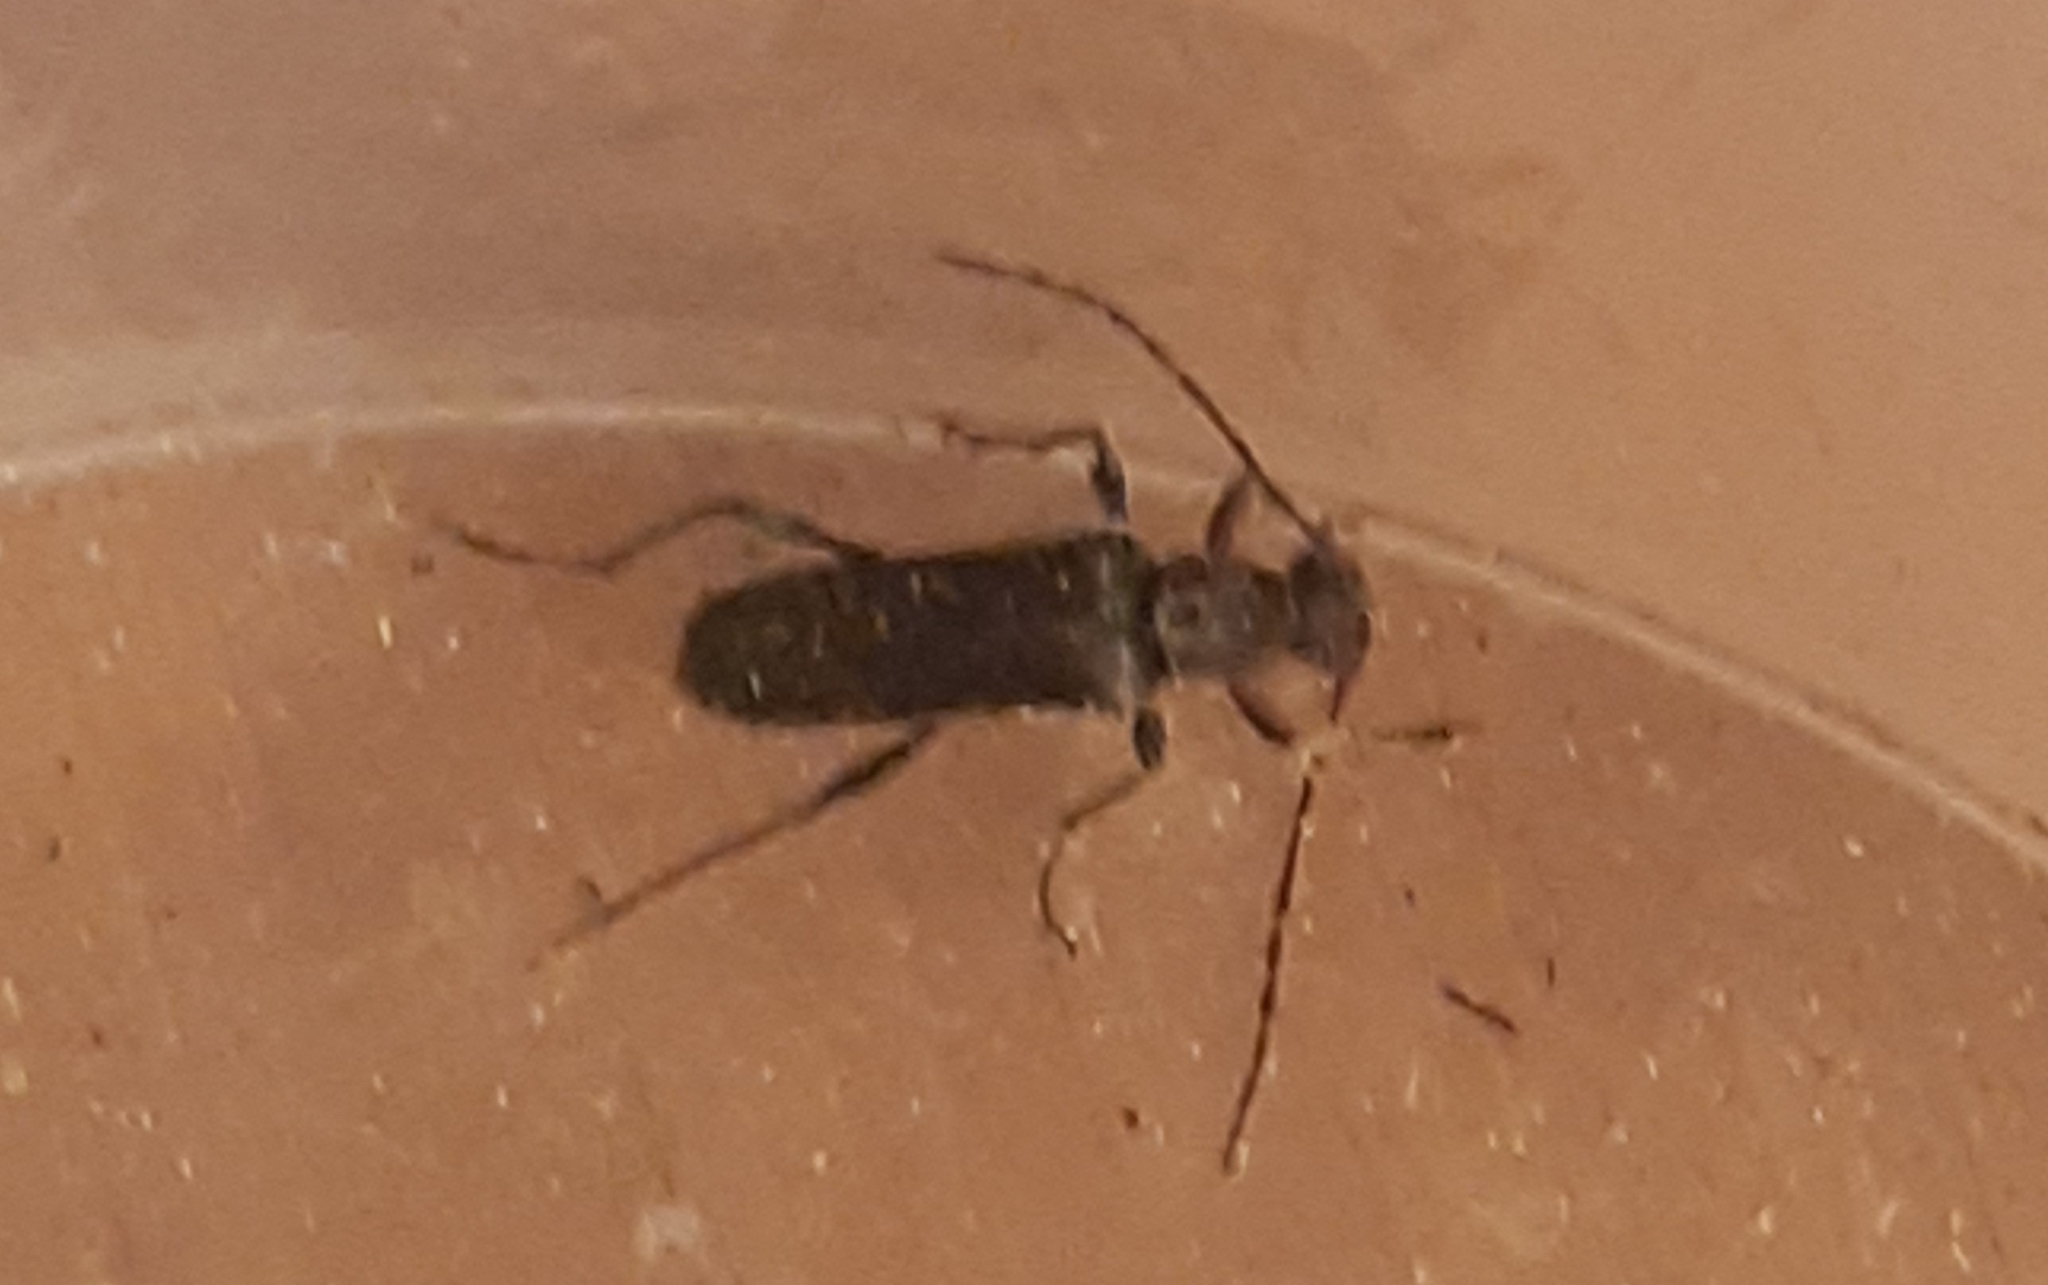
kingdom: Animalia
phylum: Arthropoda
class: Insecta
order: Coleoptera
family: Cerambycidae
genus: Grammoptera
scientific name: Grammoptera ruficornis
